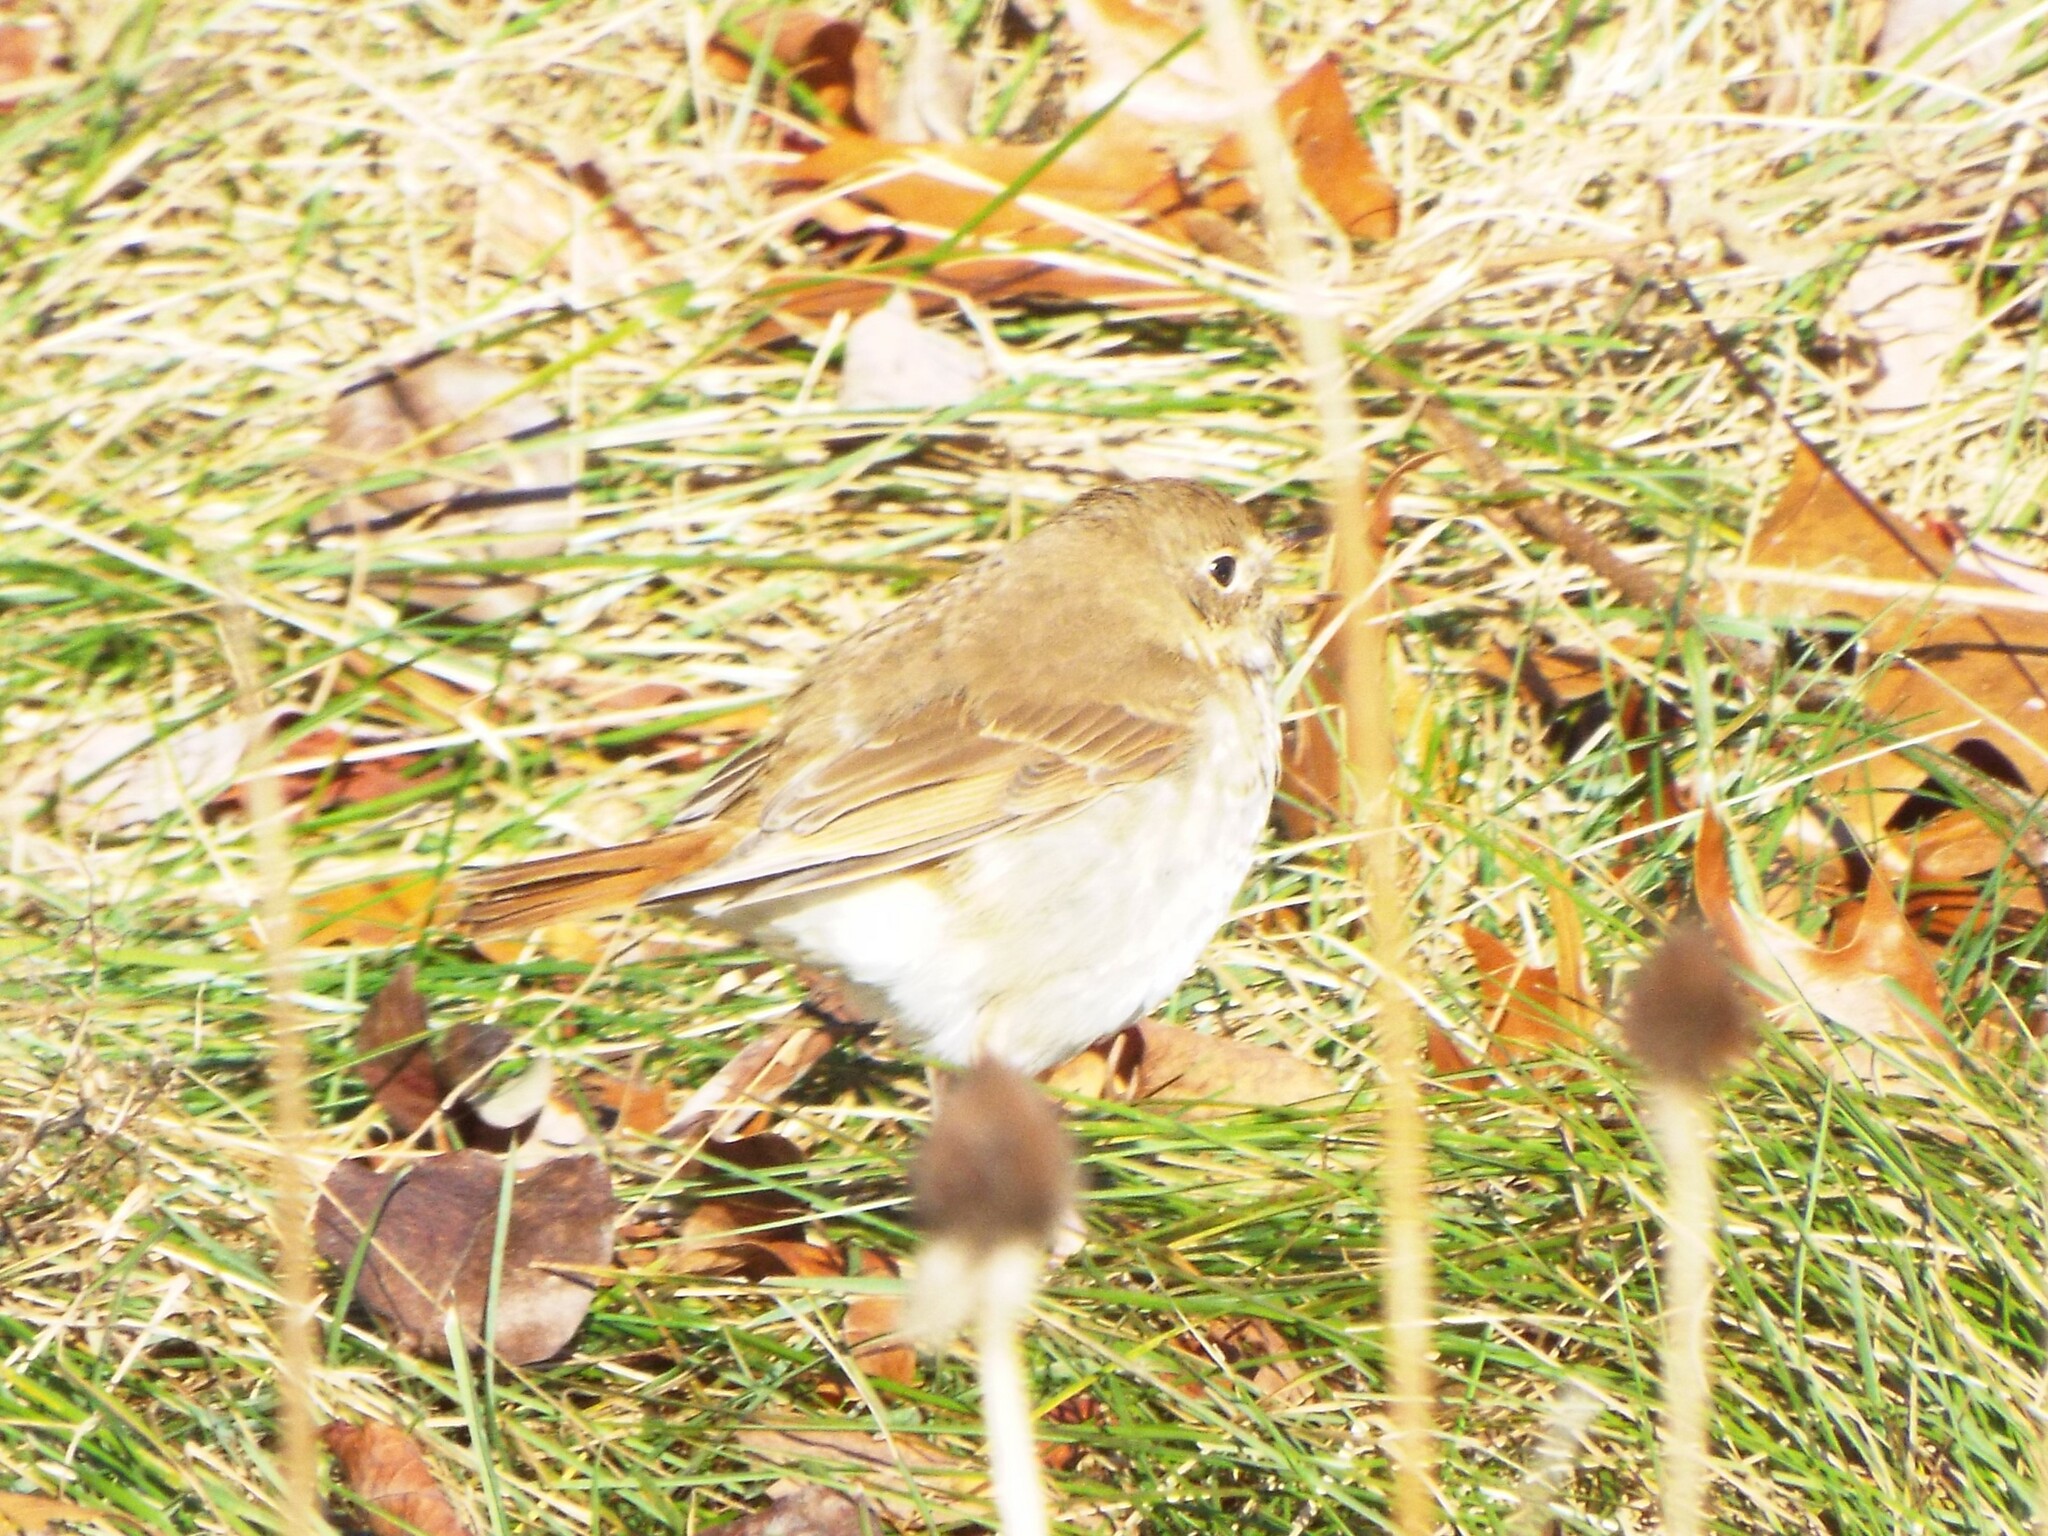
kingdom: Animalia
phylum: Chordata
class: Aves
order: Passeriformes
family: Turdidae
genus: Catharus
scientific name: Catharus guttatus
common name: Hermit thrush
